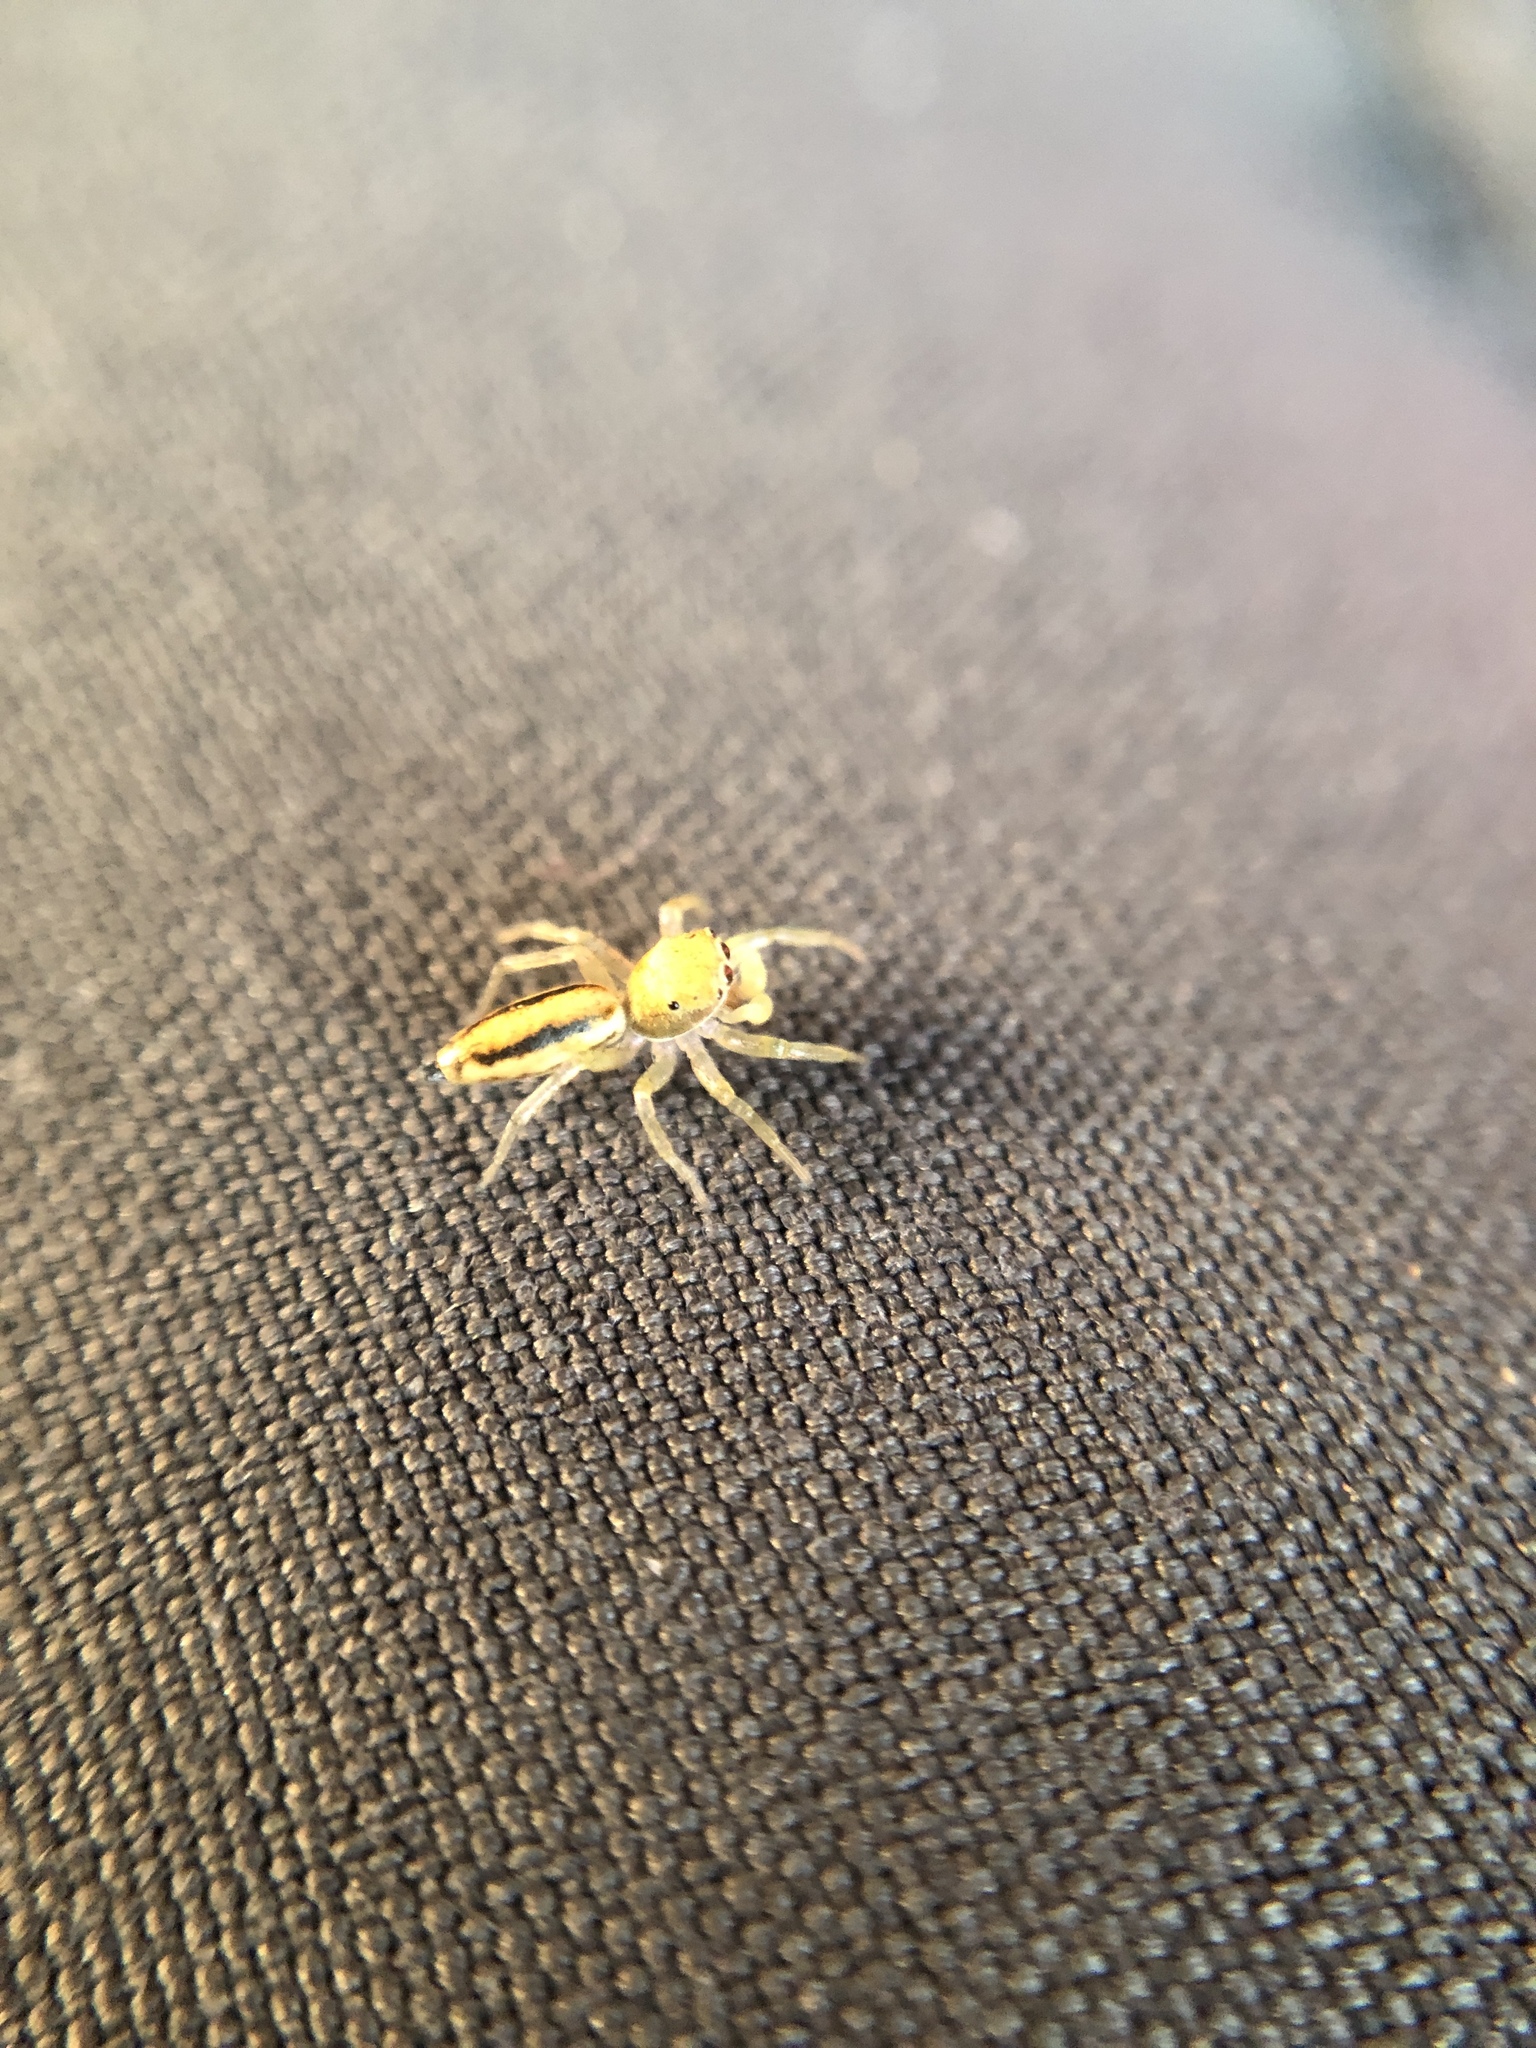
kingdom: Animalia
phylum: Arthropoda
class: Arachnida
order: Araneae
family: Salticidae
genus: Cosmophasis
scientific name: Cosmophasis lami
